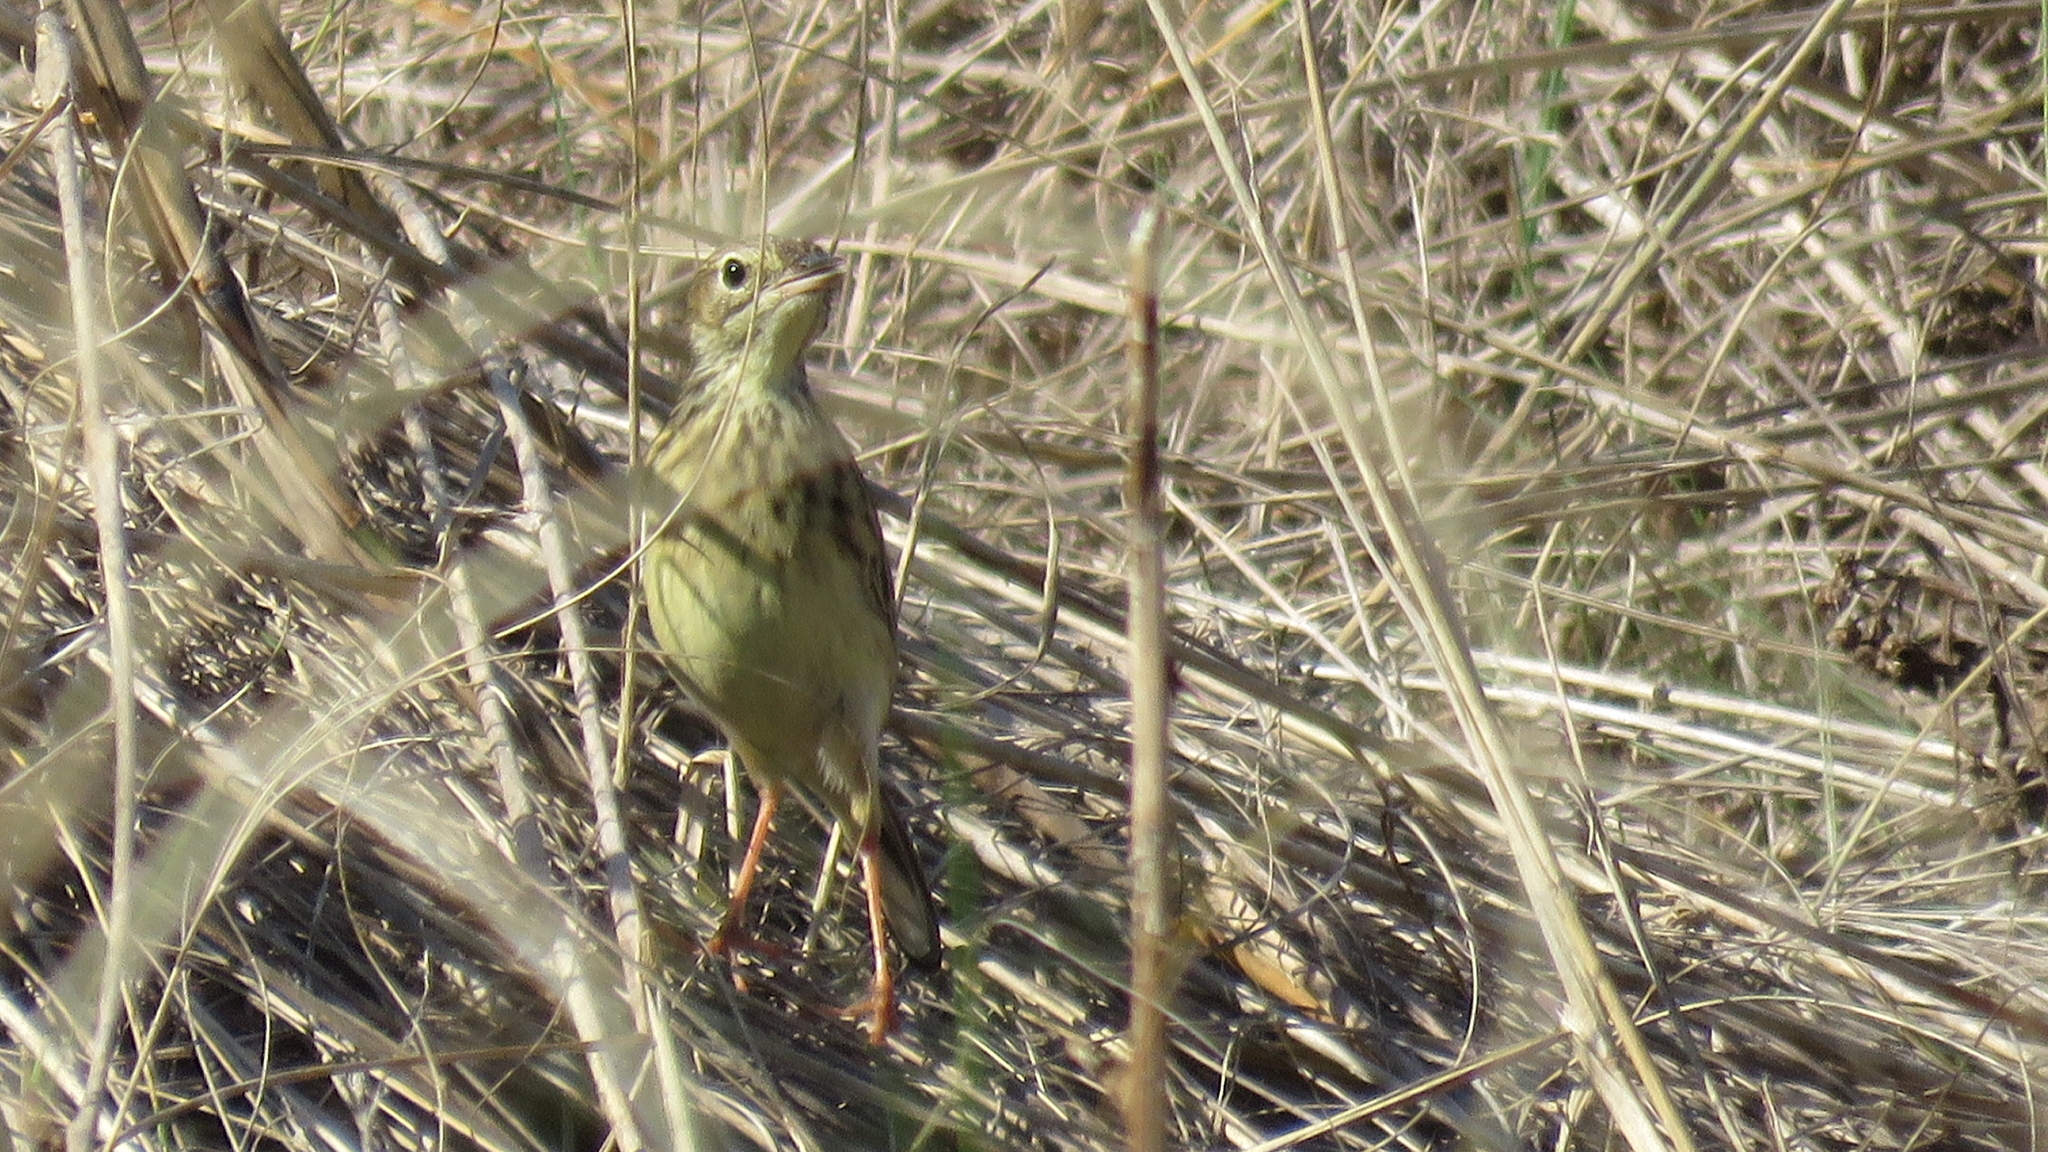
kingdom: Animalia
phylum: Chordata
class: Aves
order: Passeriformes
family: Motacillidae
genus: Anthus
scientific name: Anthus chii
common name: Yellowish pipit
